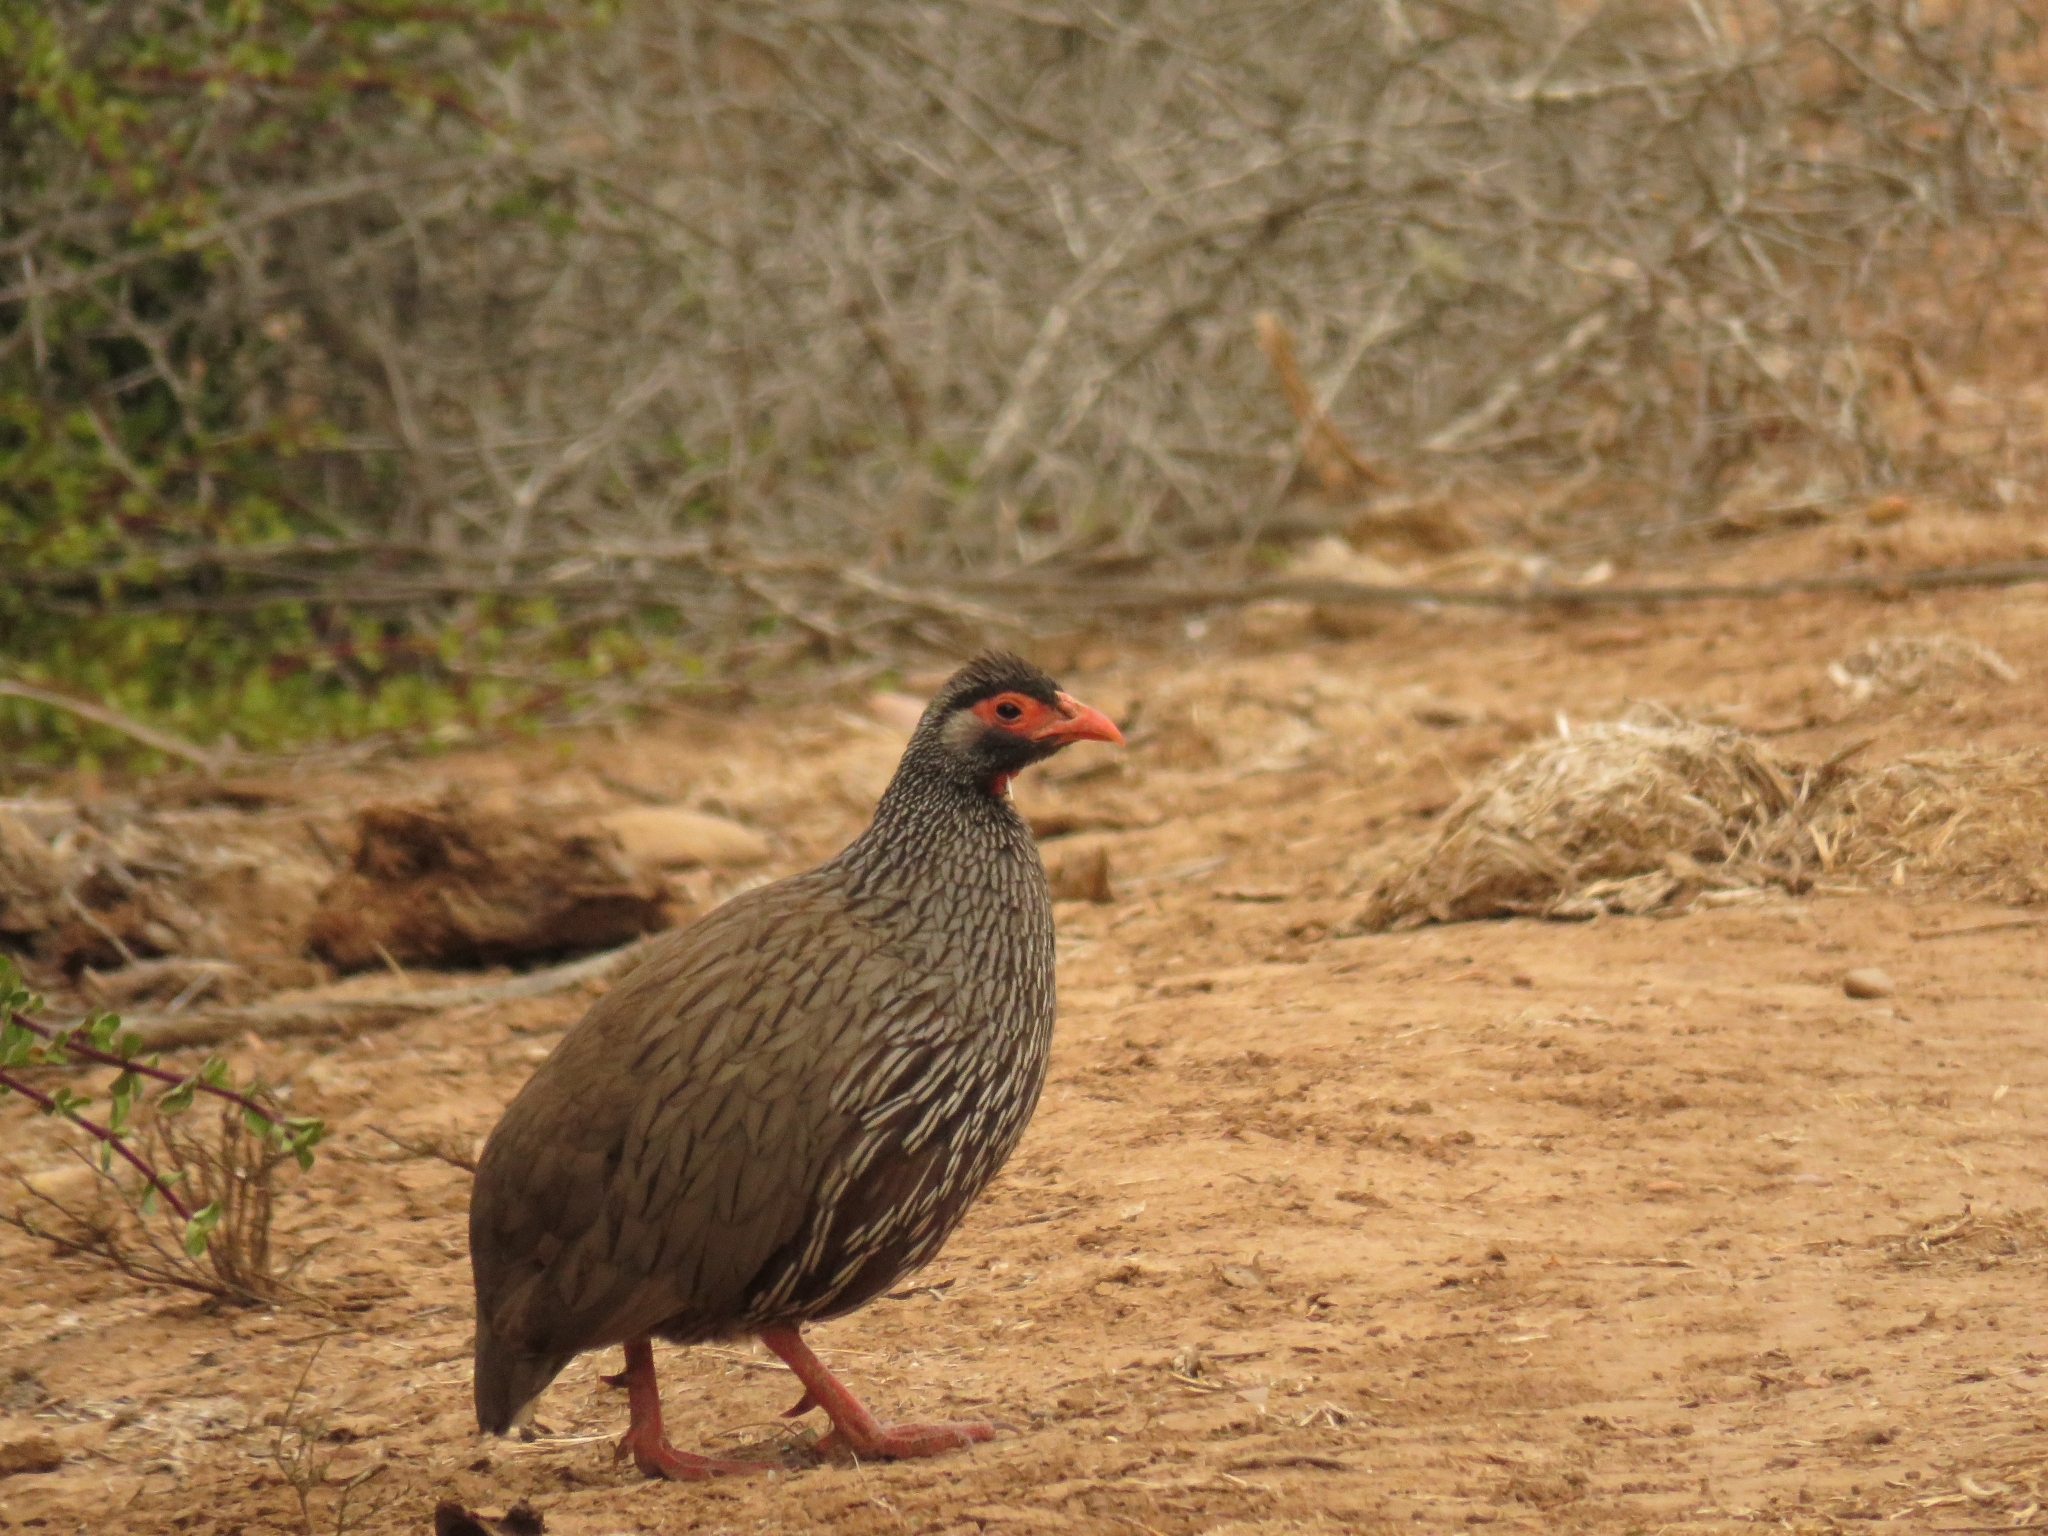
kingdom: Animalia
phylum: Chordata
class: Aves
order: Galliformes
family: Phasianidae
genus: Pternistis
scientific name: Pternistis afer
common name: Red-necked spurfowl
